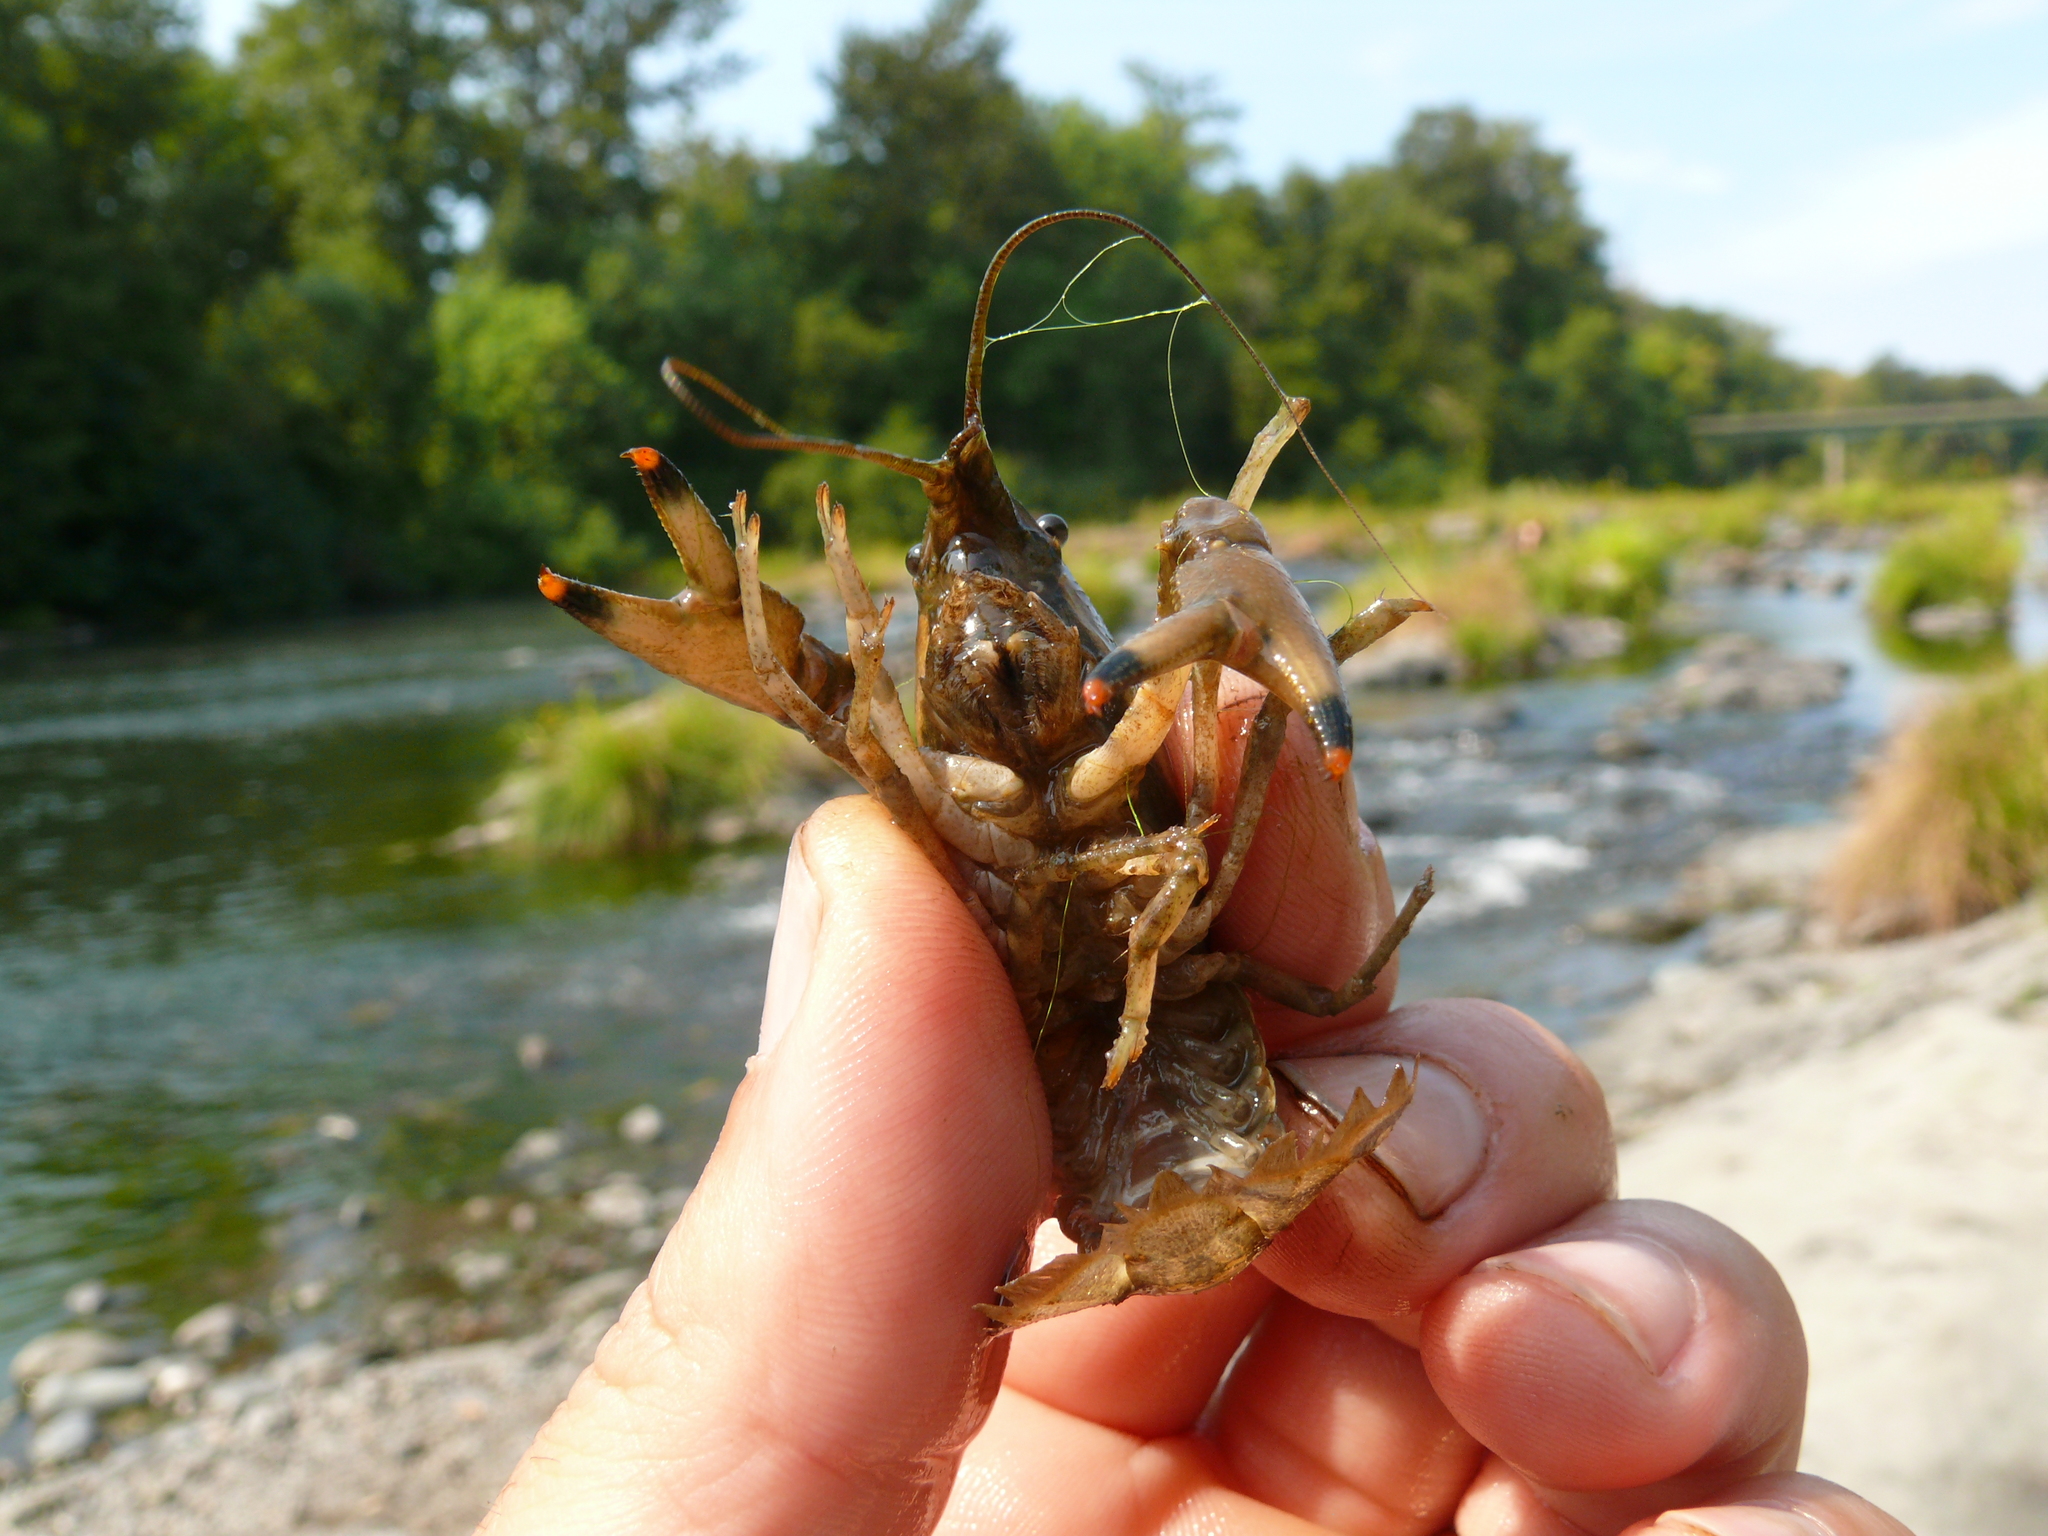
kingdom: Animalia
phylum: Arthropoda
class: Malacostraca
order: Decapoda
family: Cambaridae
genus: Faxonius
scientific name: Faxonius neglectus
